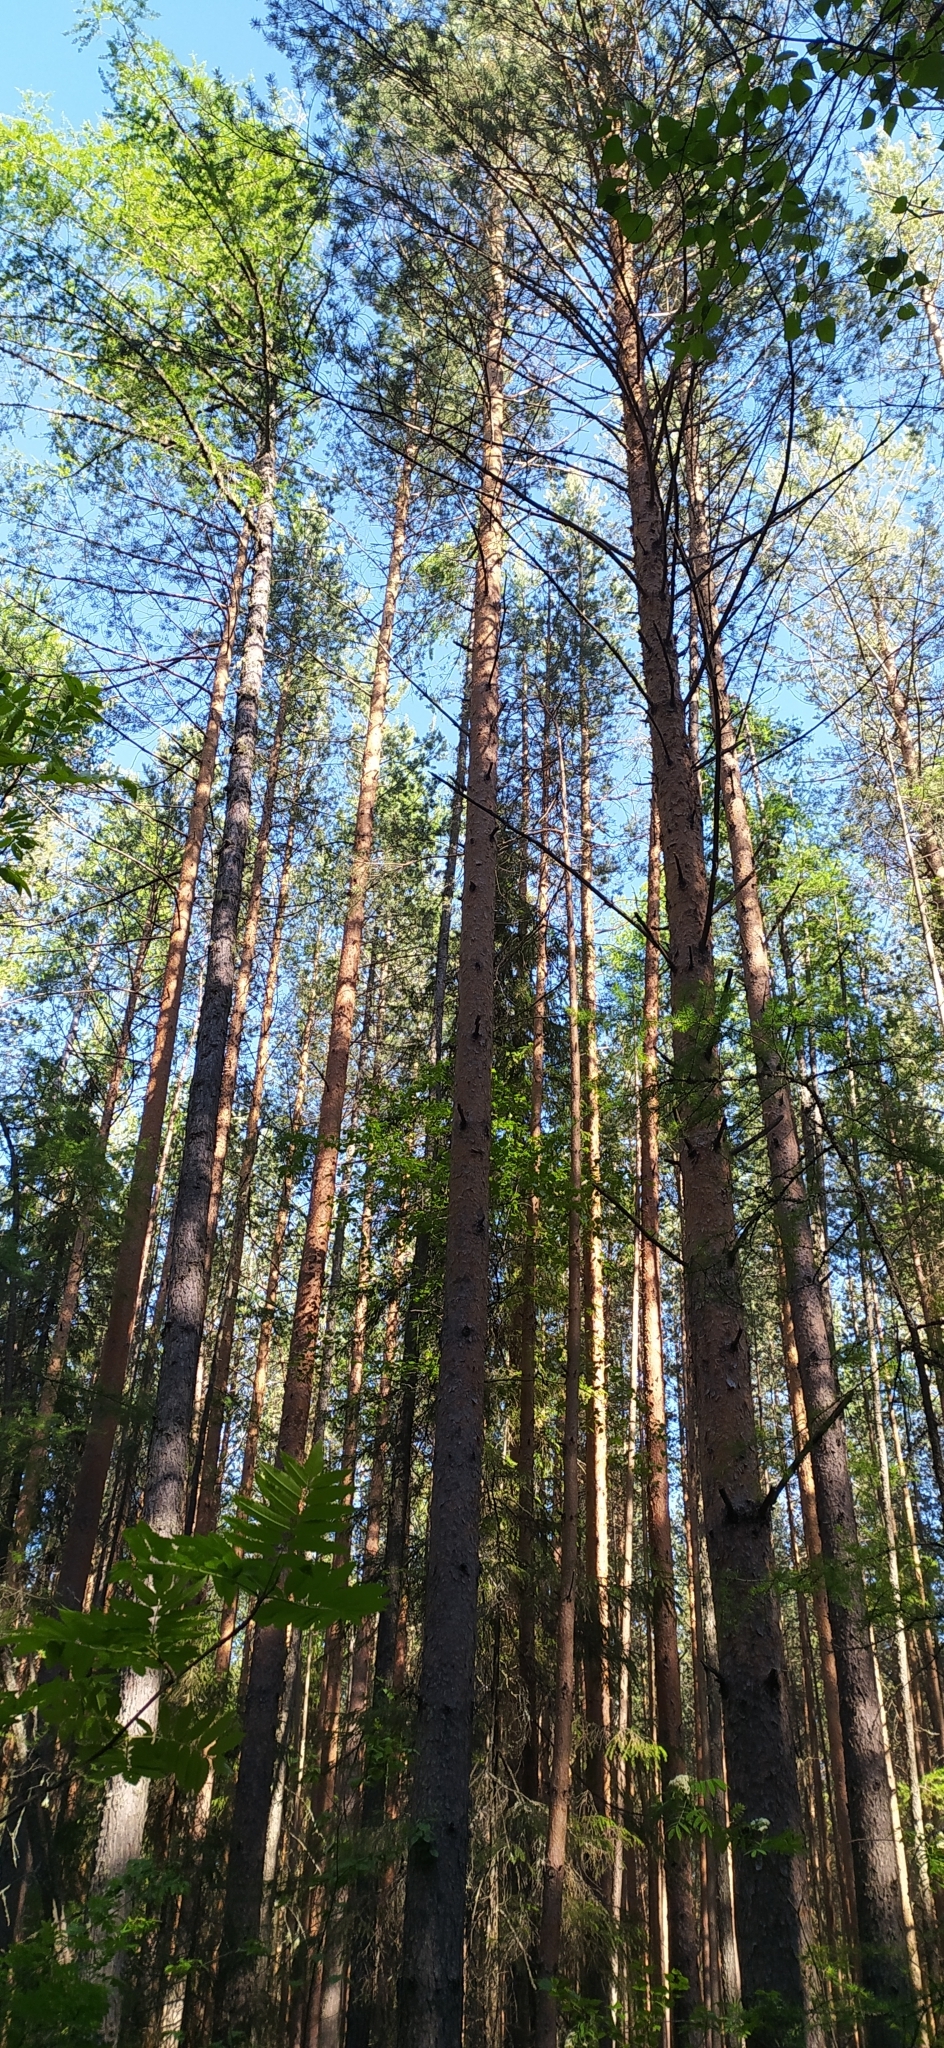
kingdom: Plantae
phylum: Tracheophyta
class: Pinopsida
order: Pinales
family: Pinaceae
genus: Pinus
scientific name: Pinus sylvestris
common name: Scots pine
